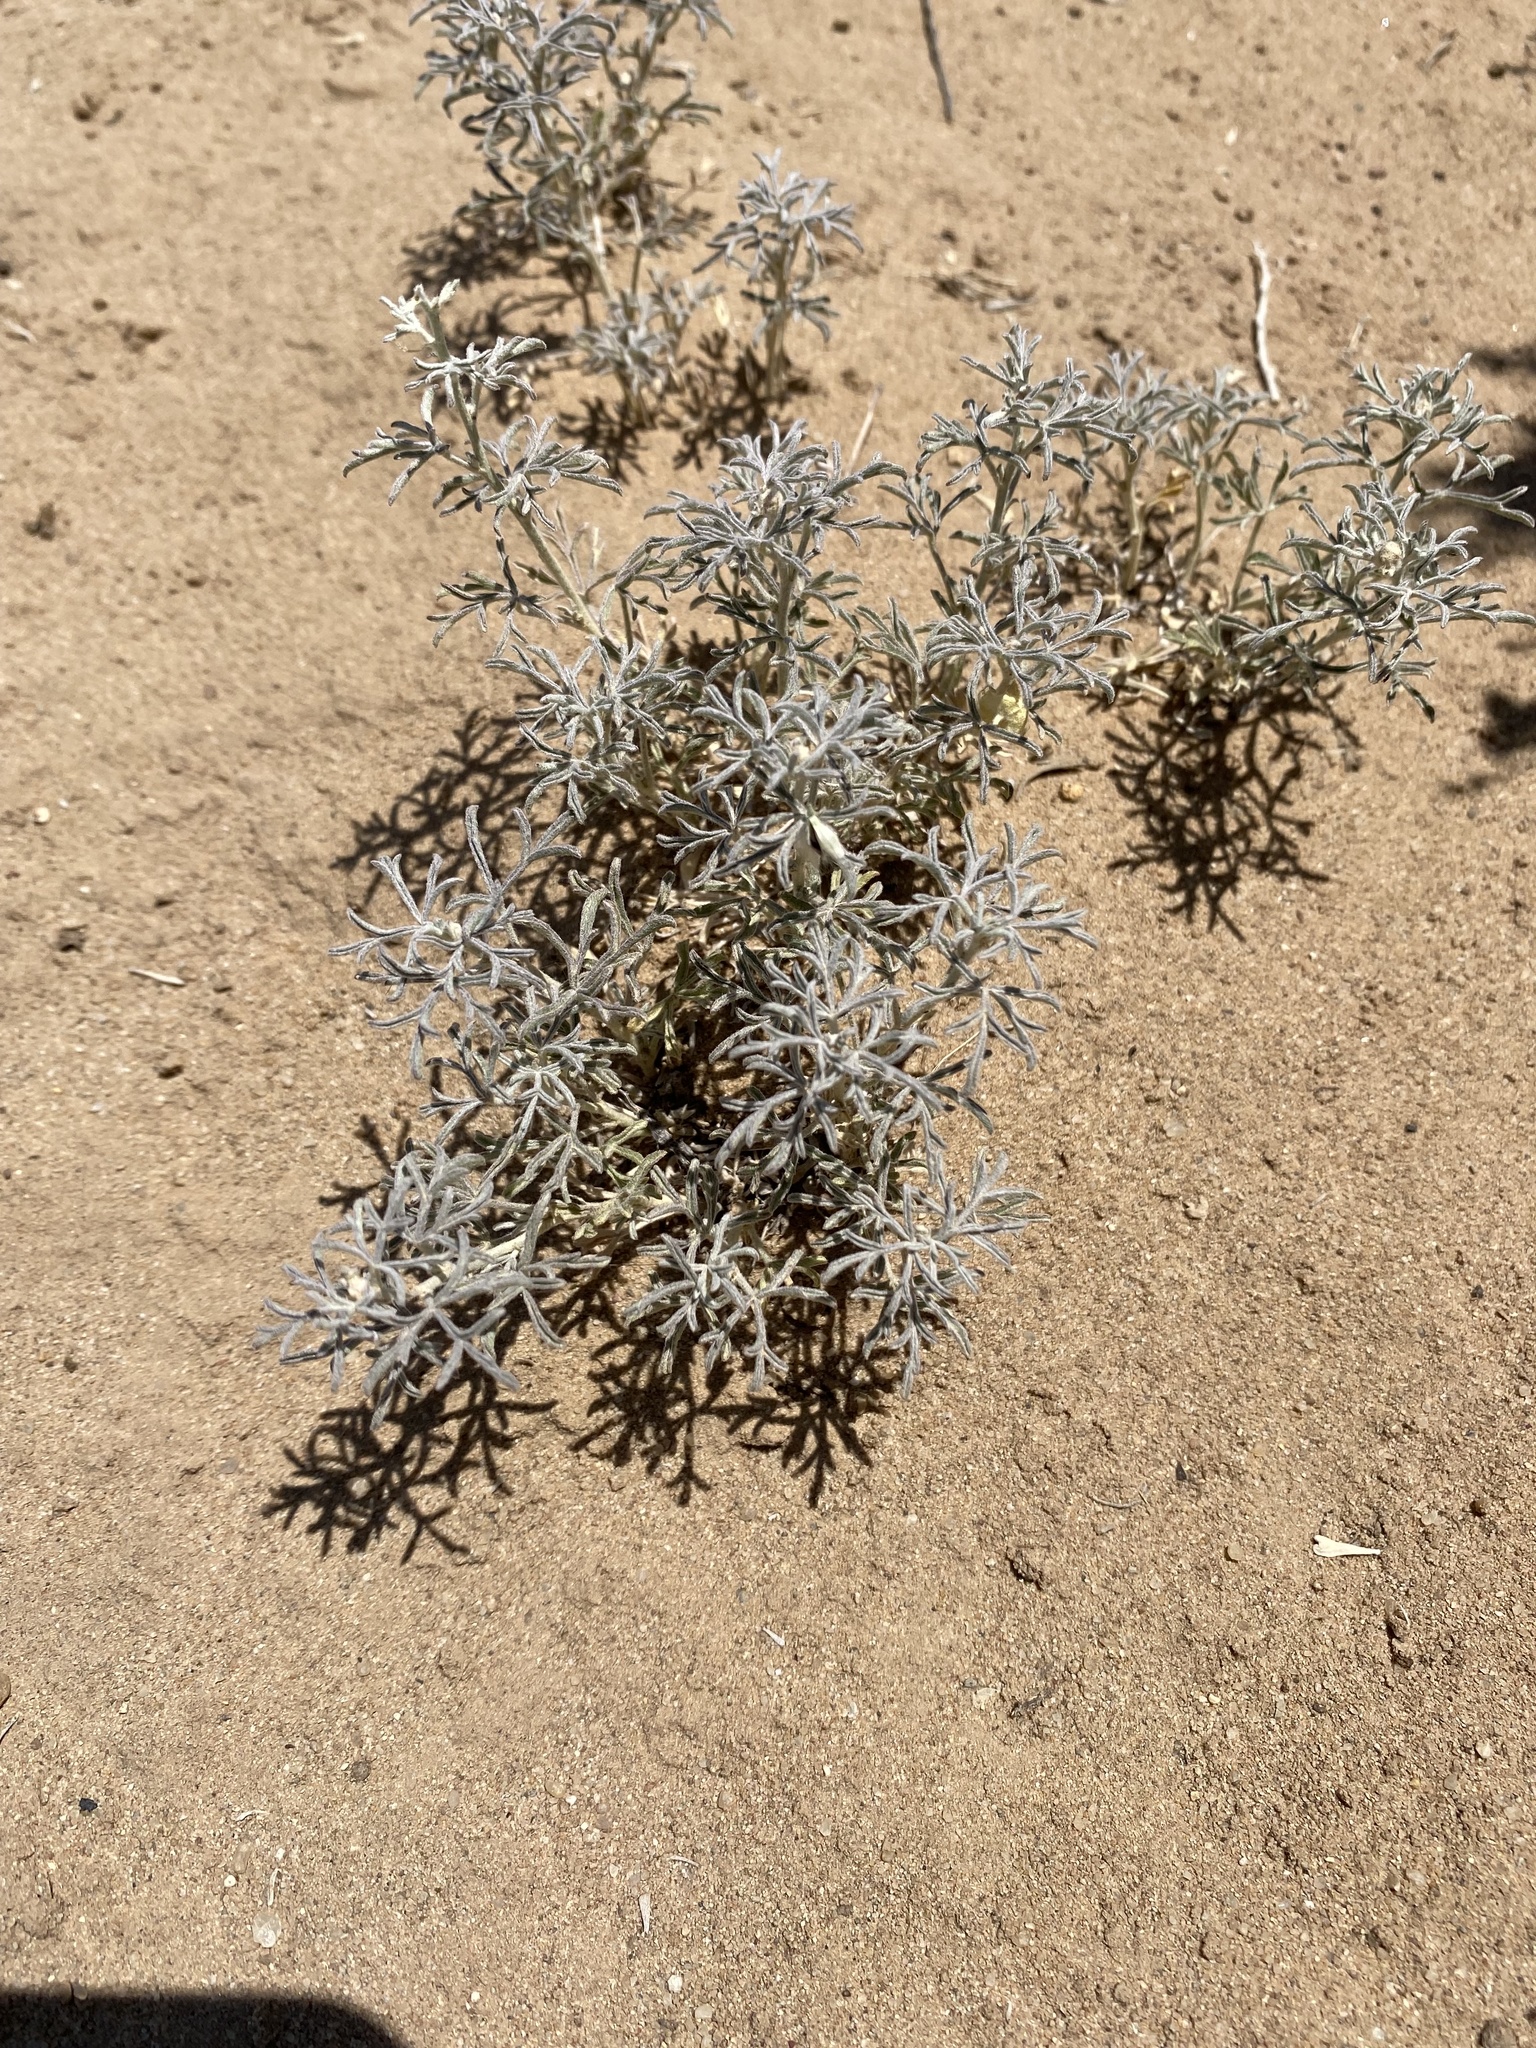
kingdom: Plantae
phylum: Tracheophyta
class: Magnoliopsida
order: Malvales
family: Malvaceae
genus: Sphaeralcea
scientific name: Sphaeralcea coccinea
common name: Moss-rose
